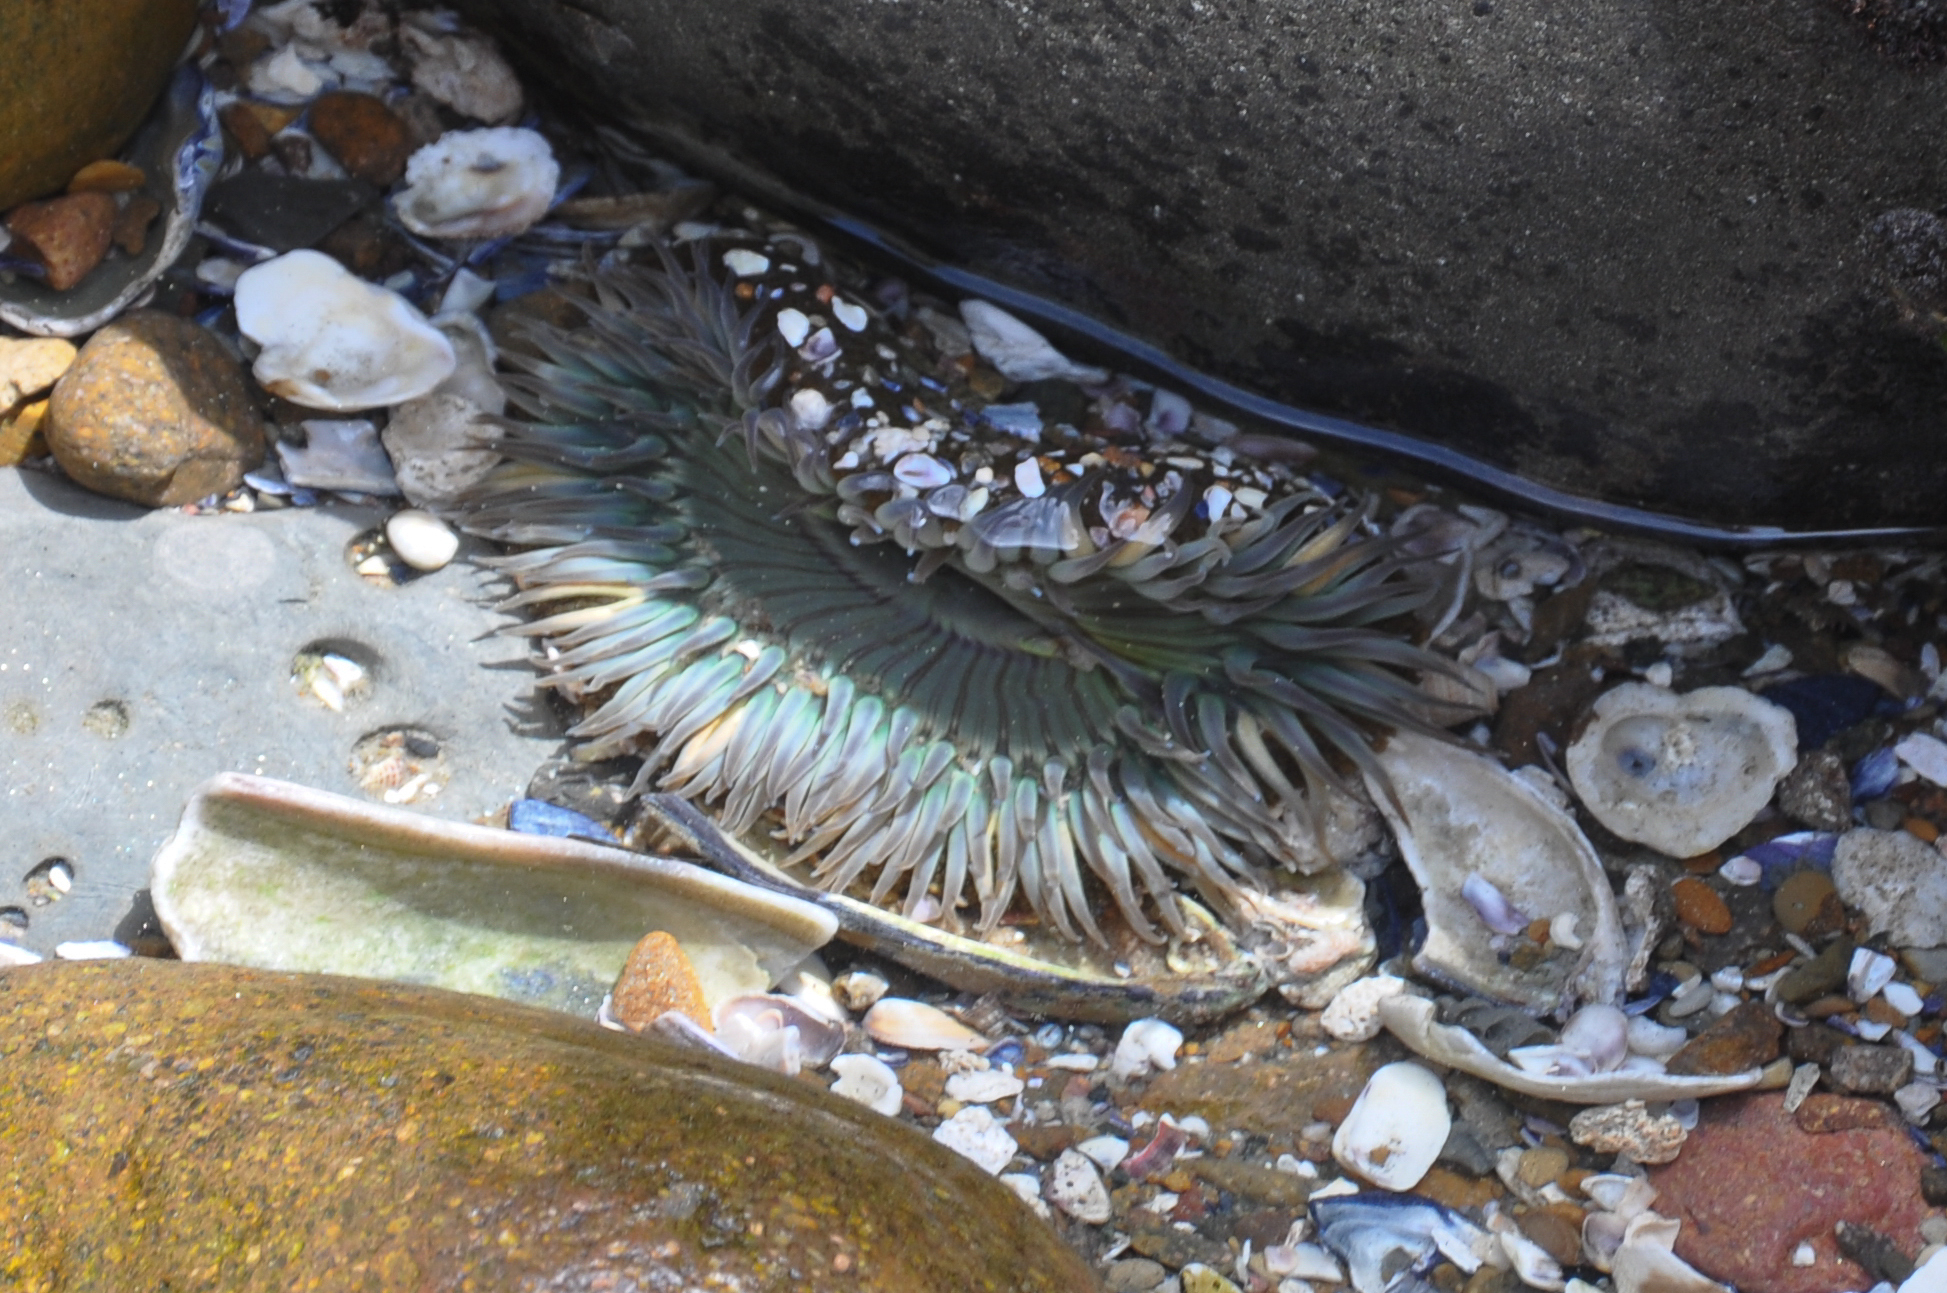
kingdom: Animalia
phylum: Cnidaria
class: Anthozoa
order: Actiniaria
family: Actiniidae
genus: Anthopleura
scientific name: Anthopleura sola
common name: Sun anemone
